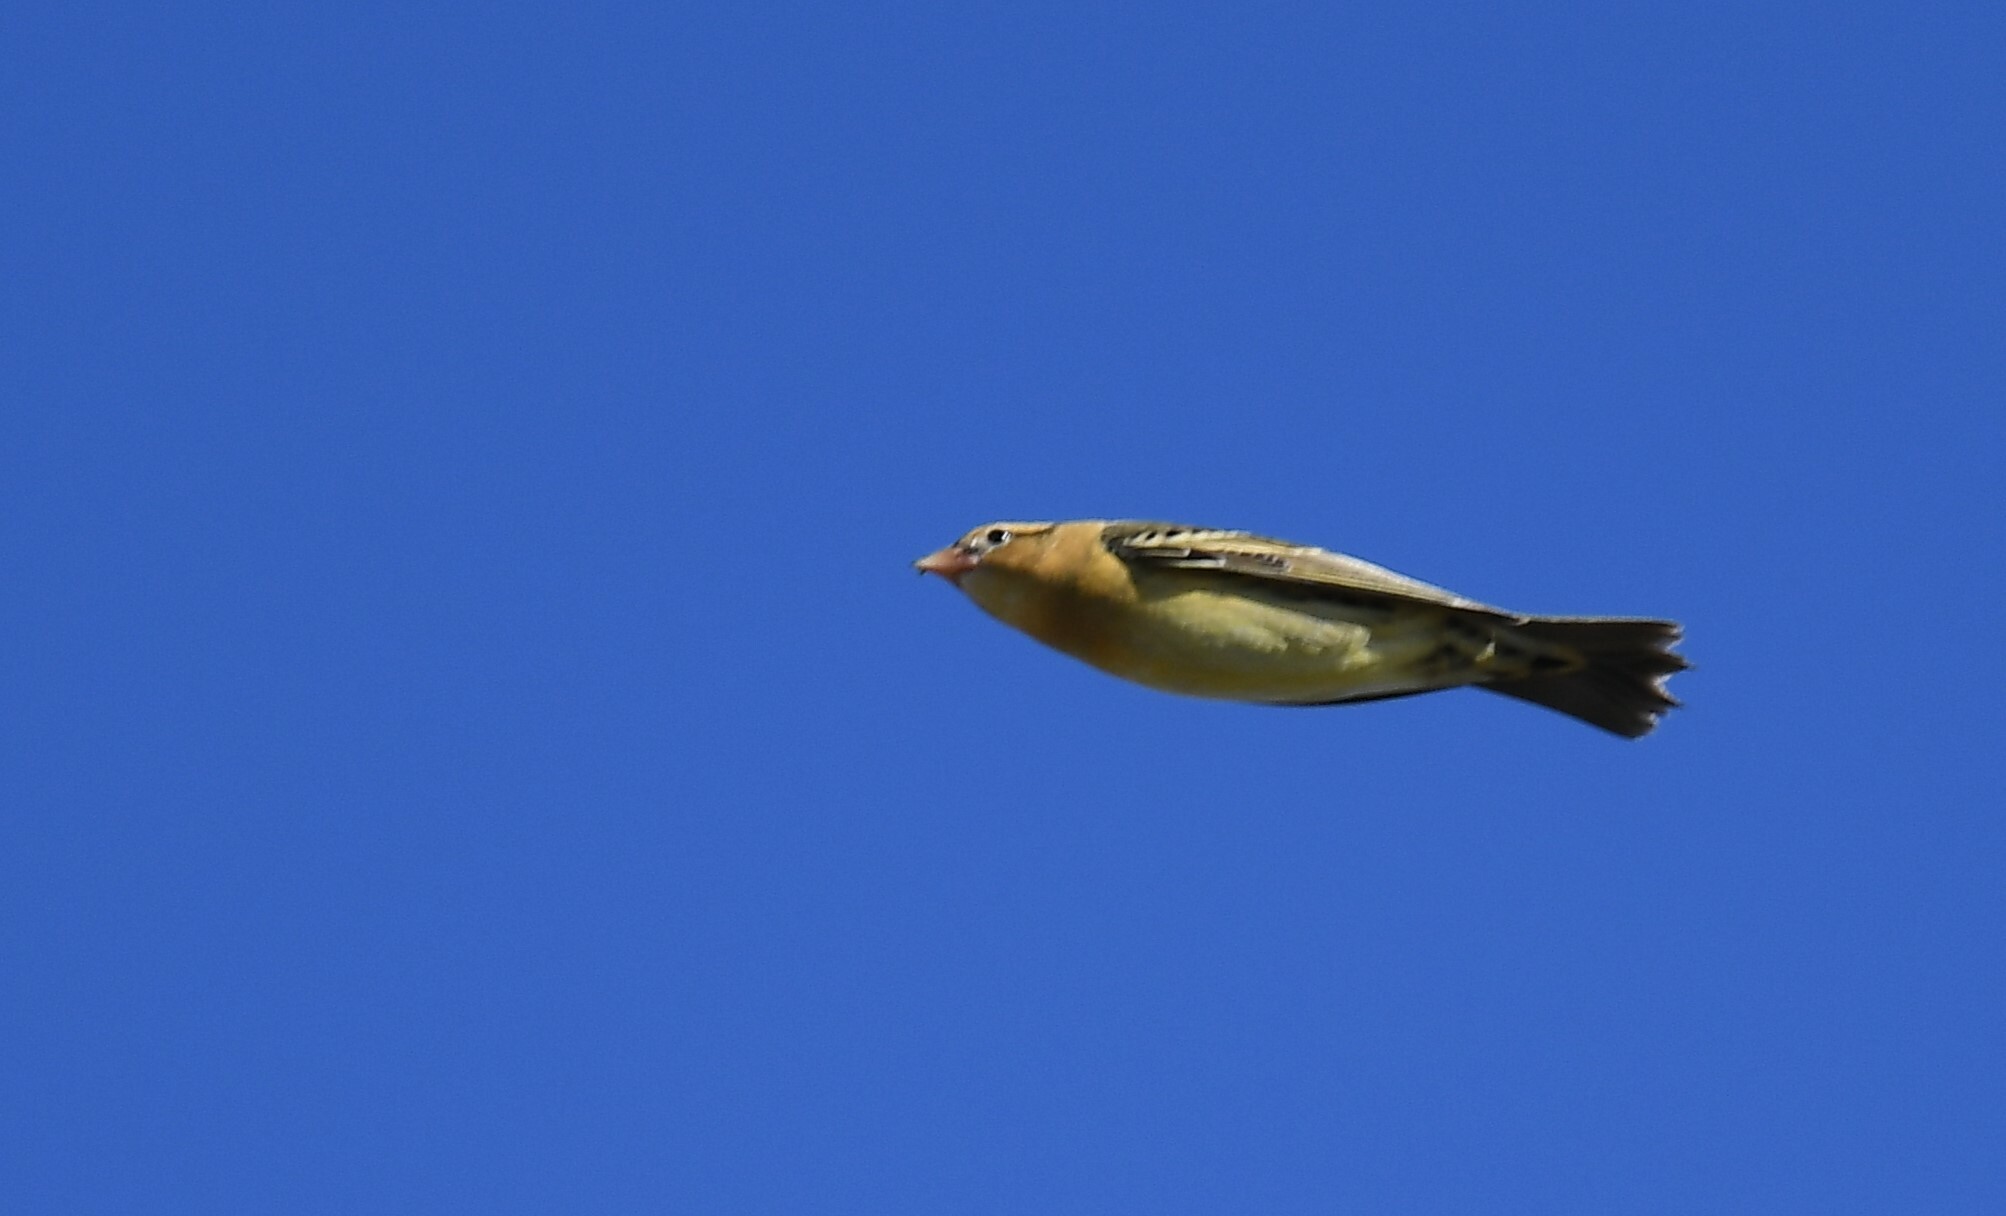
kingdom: Animalia
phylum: Chordata
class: Aves
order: Passeriformes
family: Icteridae
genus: Dolichonyx
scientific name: Dolichonyx oryzivorus
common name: Bobolink
